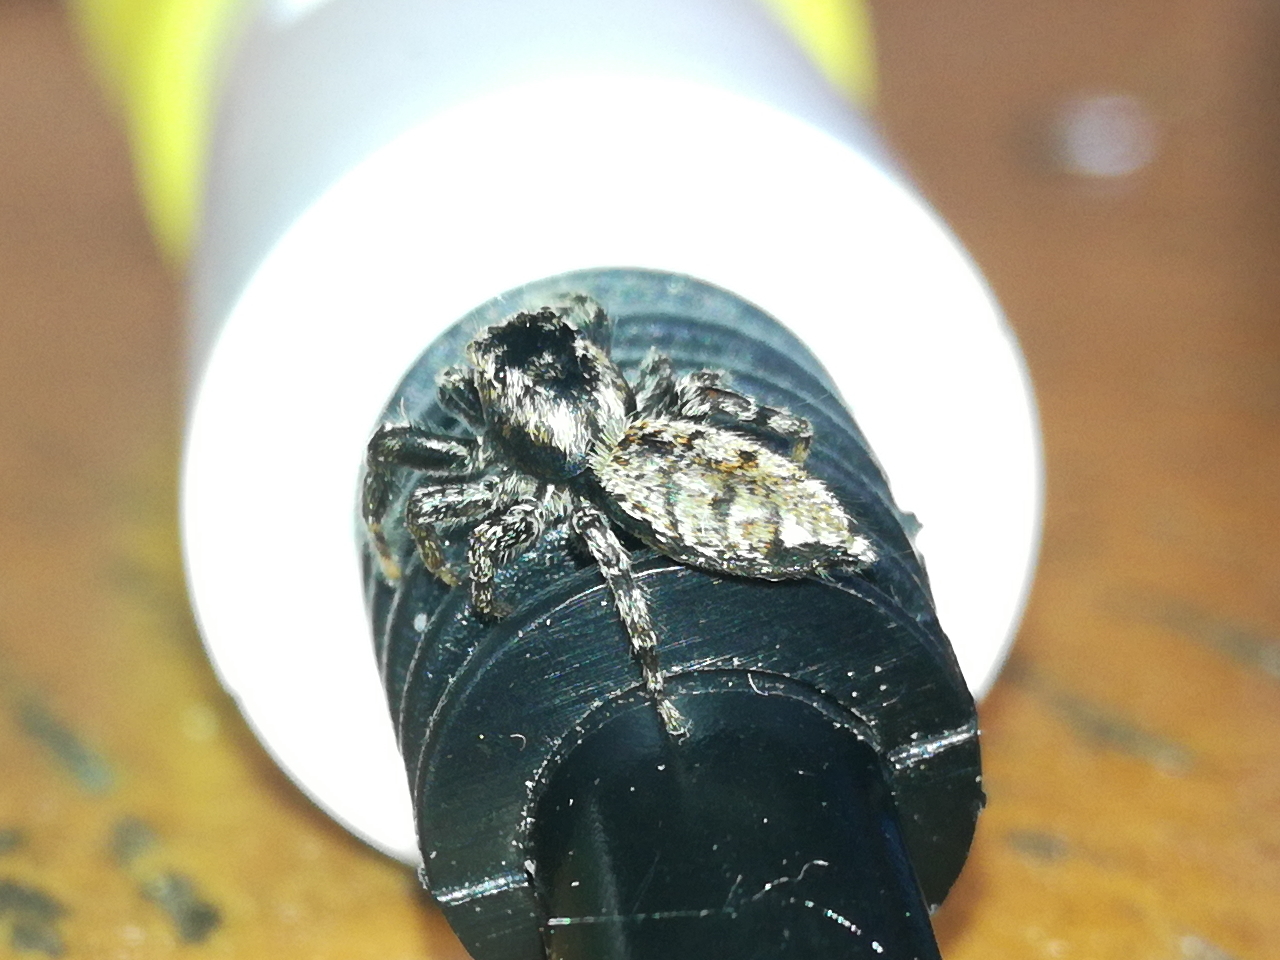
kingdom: Animalia
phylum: Arthropoda
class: Arachnida
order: Araneae
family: Salticidae
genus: Marpissa
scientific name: Marpissa muscosa
